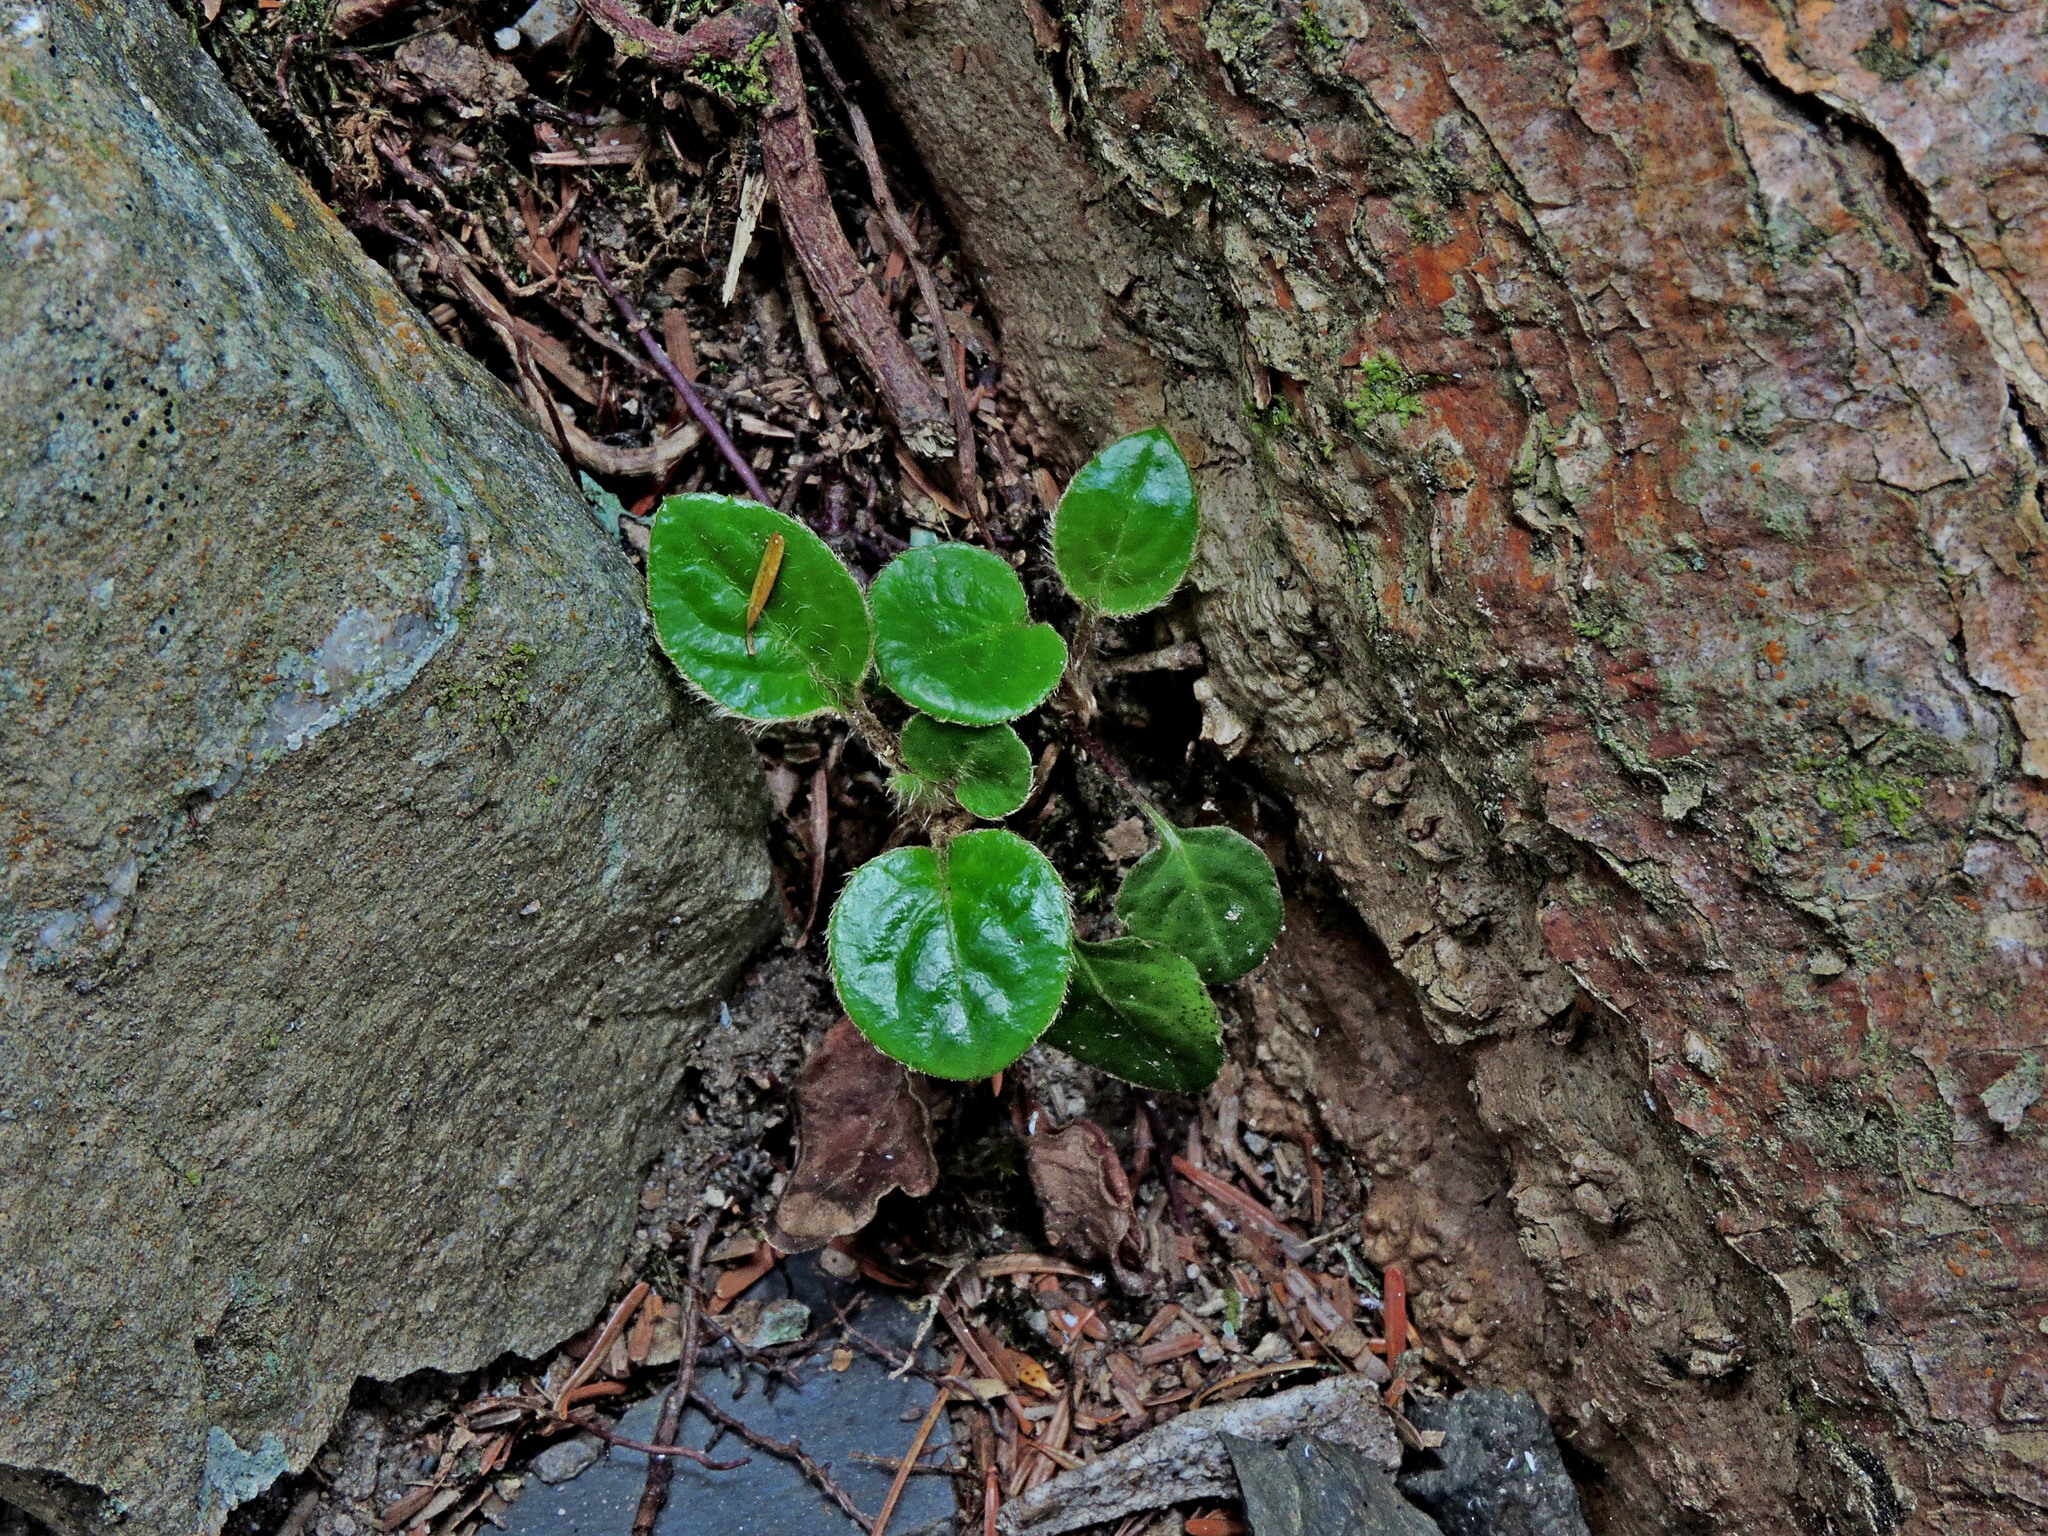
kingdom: Plantae
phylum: Tracheophyta
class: Magnoliopsida
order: Asterales
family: Asteraceae
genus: Ainsliaea
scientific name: Ainsliaea henryi
